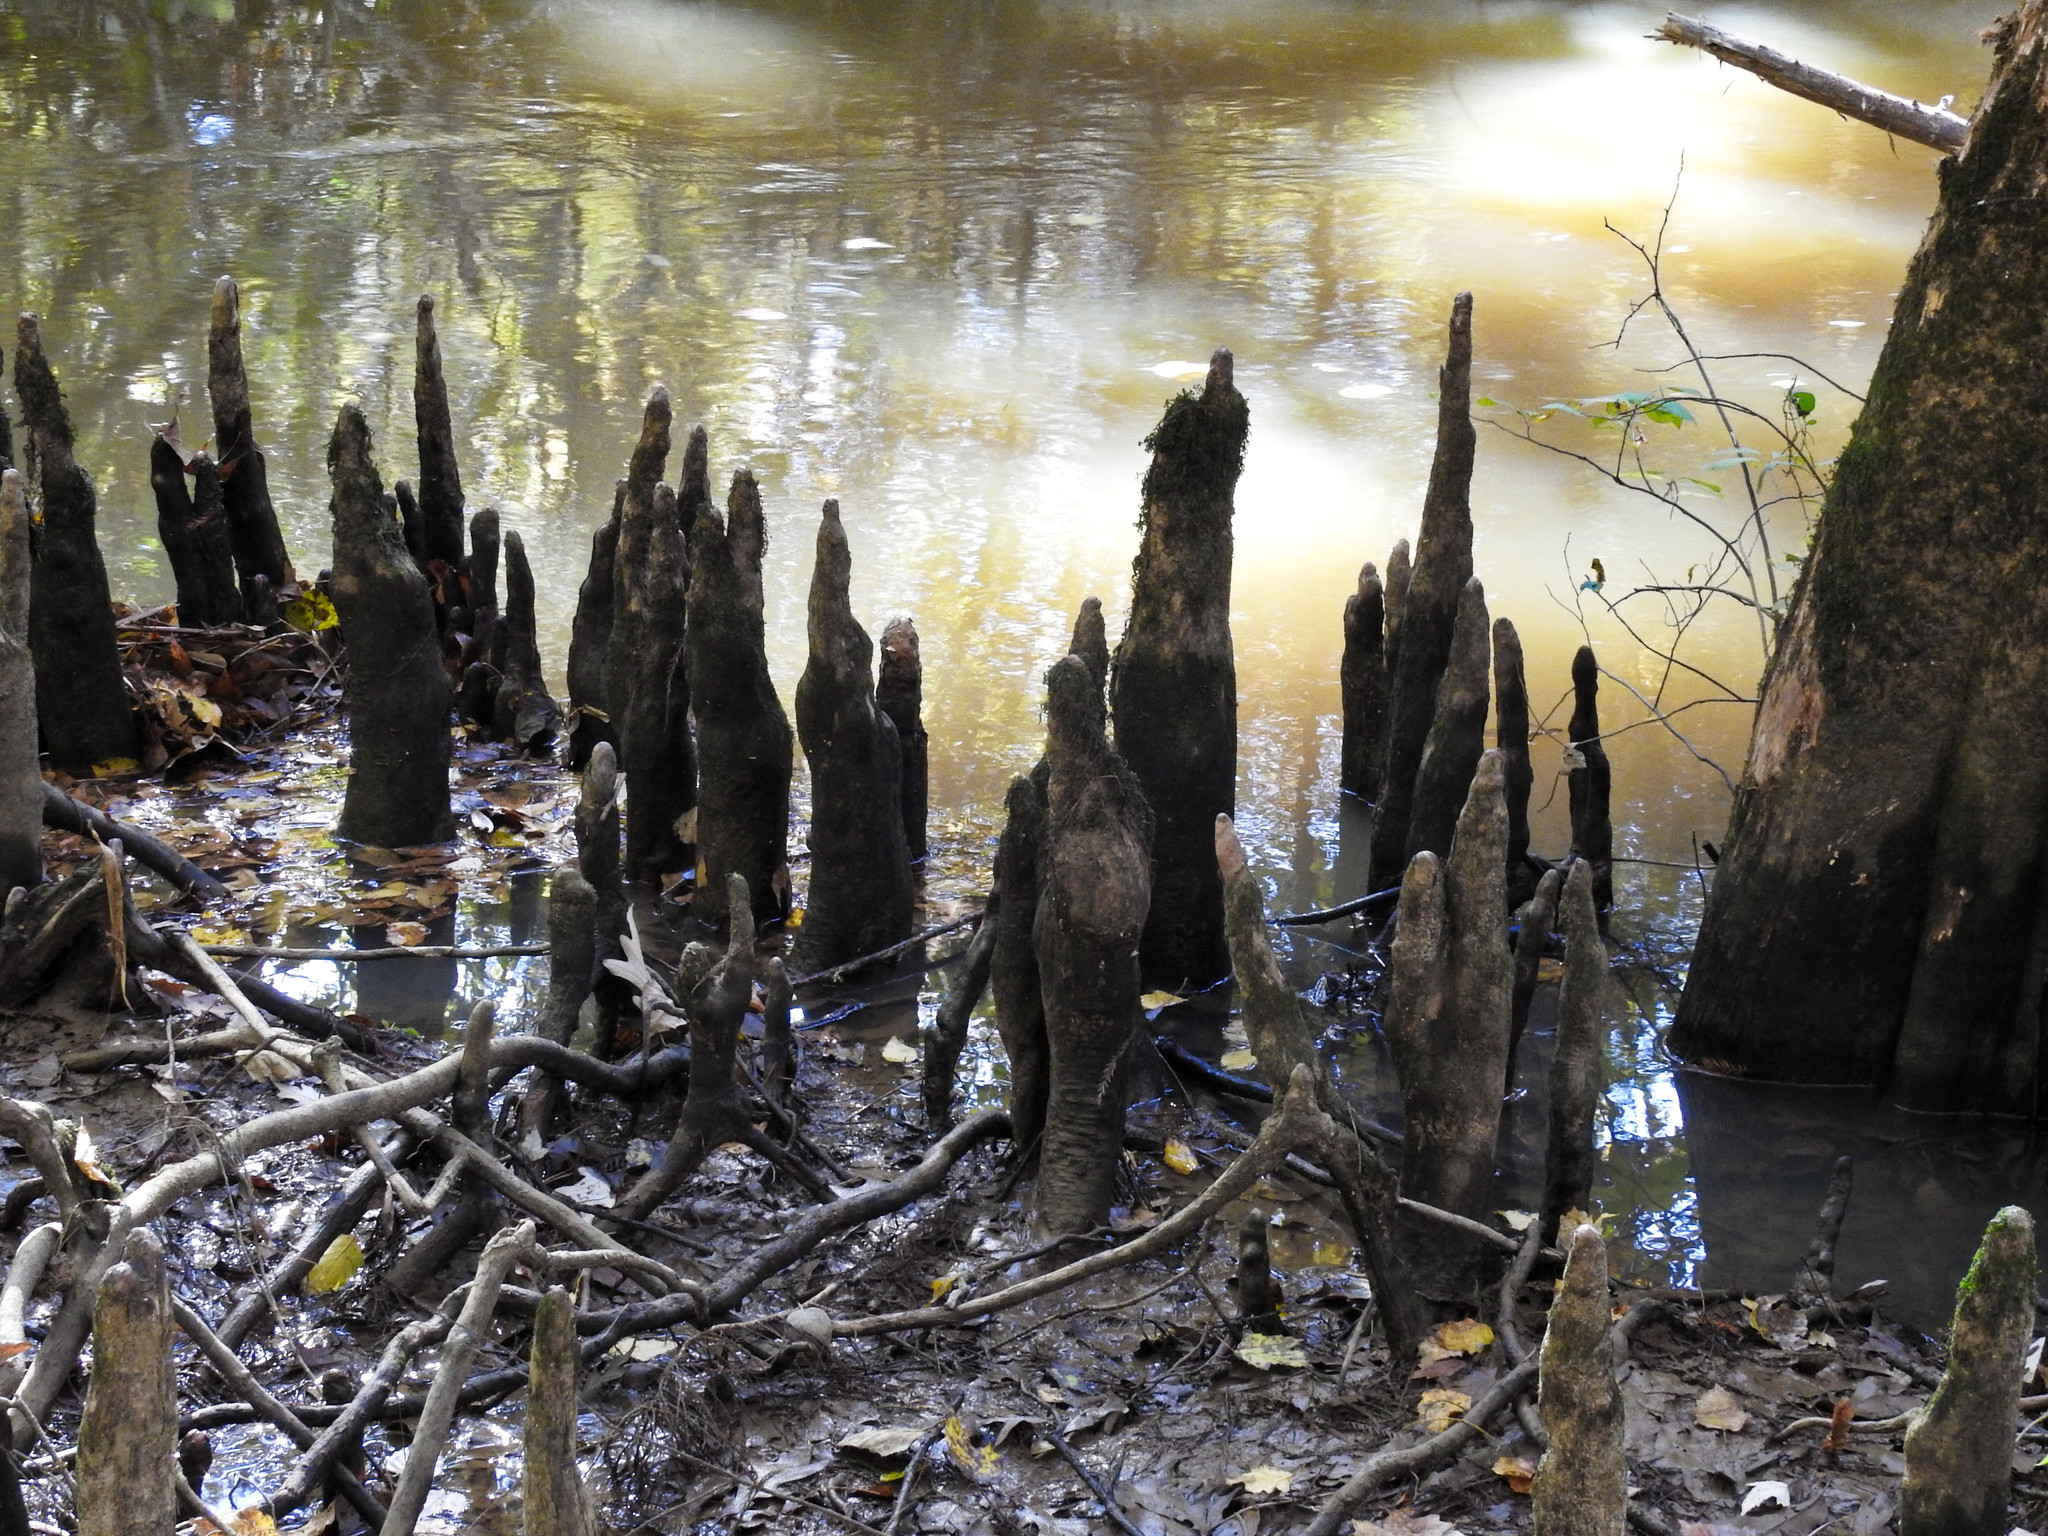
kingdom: Plantae
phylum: Tracheophyta
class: Pinopsida
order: Pinales
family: Cupressaceae
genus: Taxodium
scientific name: Taxodium distichum
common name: Bald cypress
